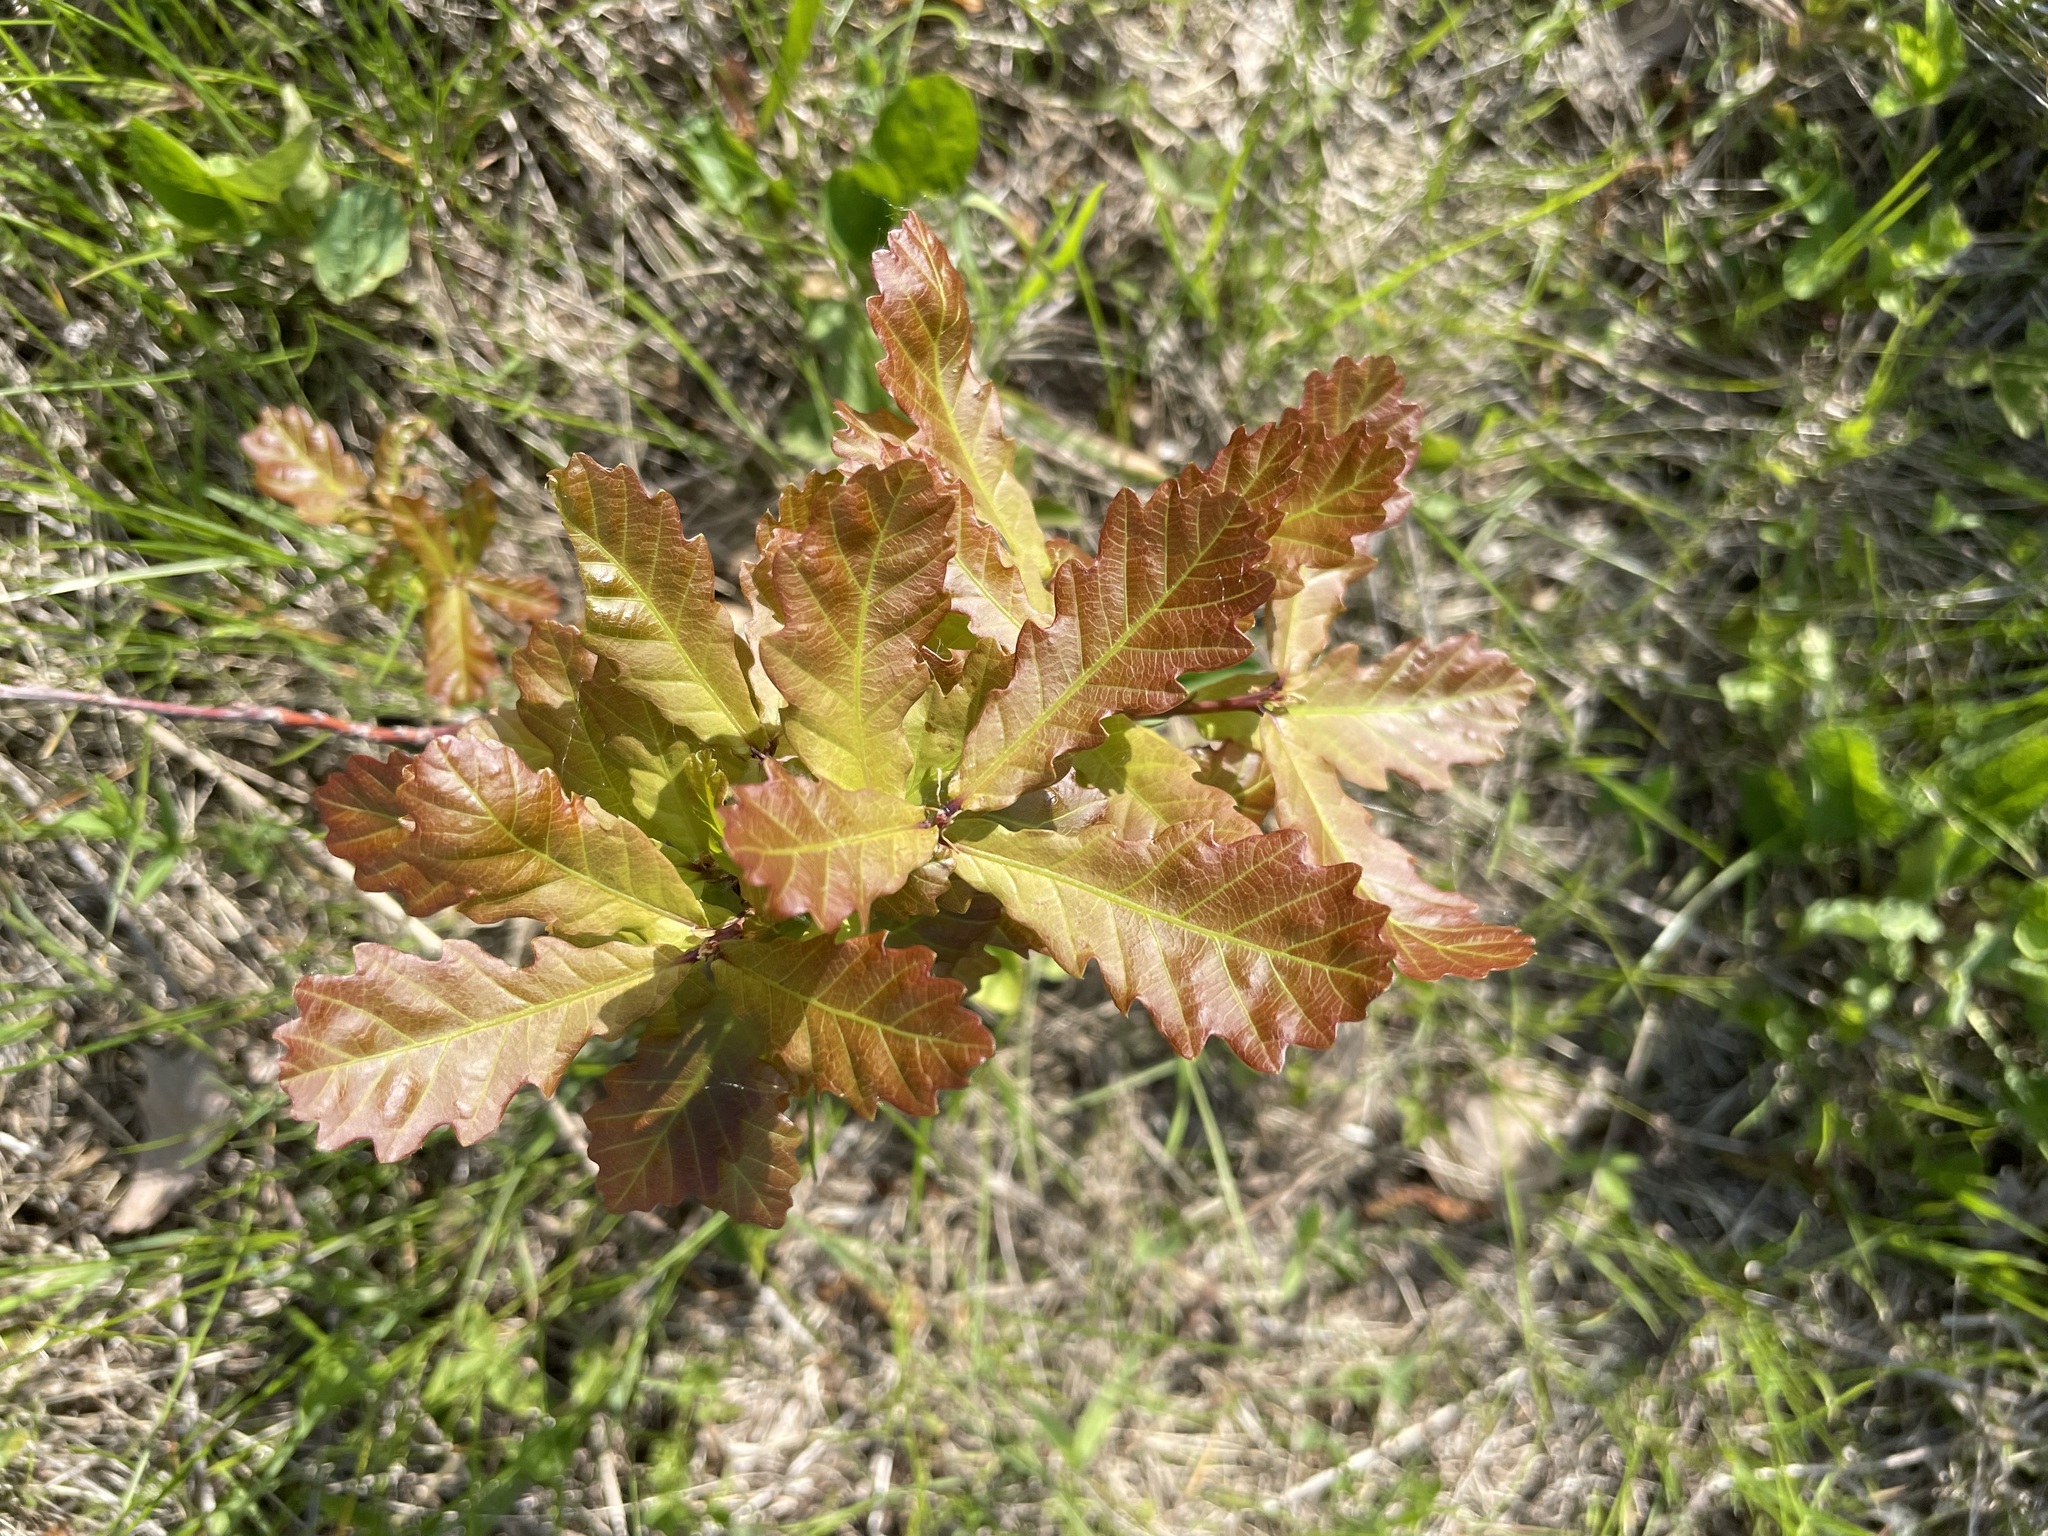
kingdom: Plantae
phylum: Tracheophyta
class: Magnoliopsida
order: Fagales
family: Fagaceae
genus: Quercus
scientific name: Quercus robur
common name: Pedunculate oak
